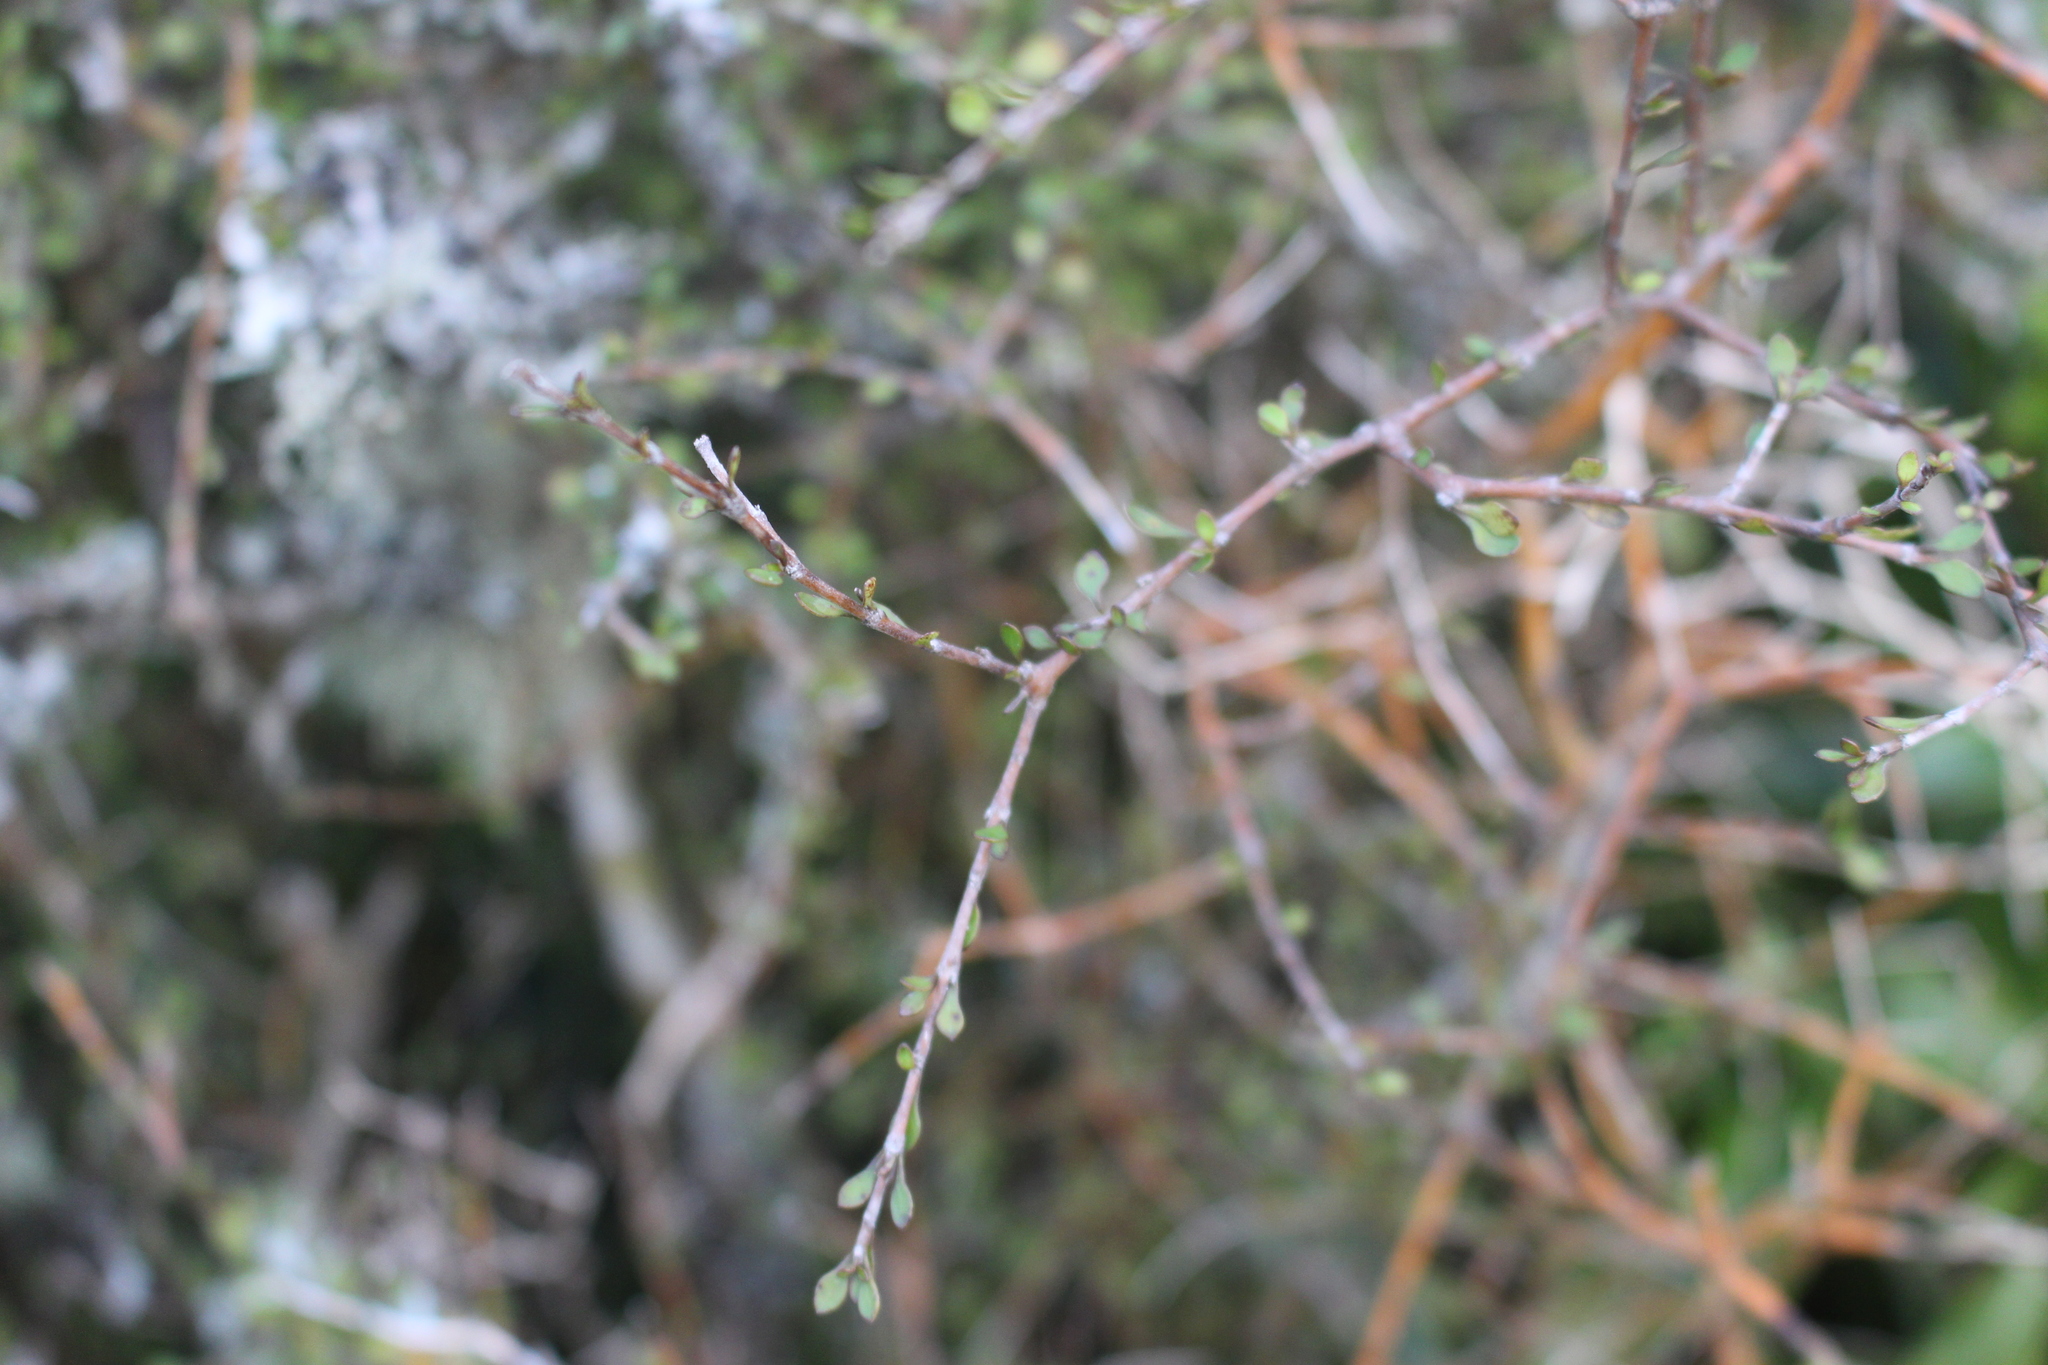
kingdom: Plantae
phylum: Tracheophyta
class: Magnoliopsida
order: Gentianales
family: Rubiaceae
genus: Coprosma
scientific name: Coprosma virescens
